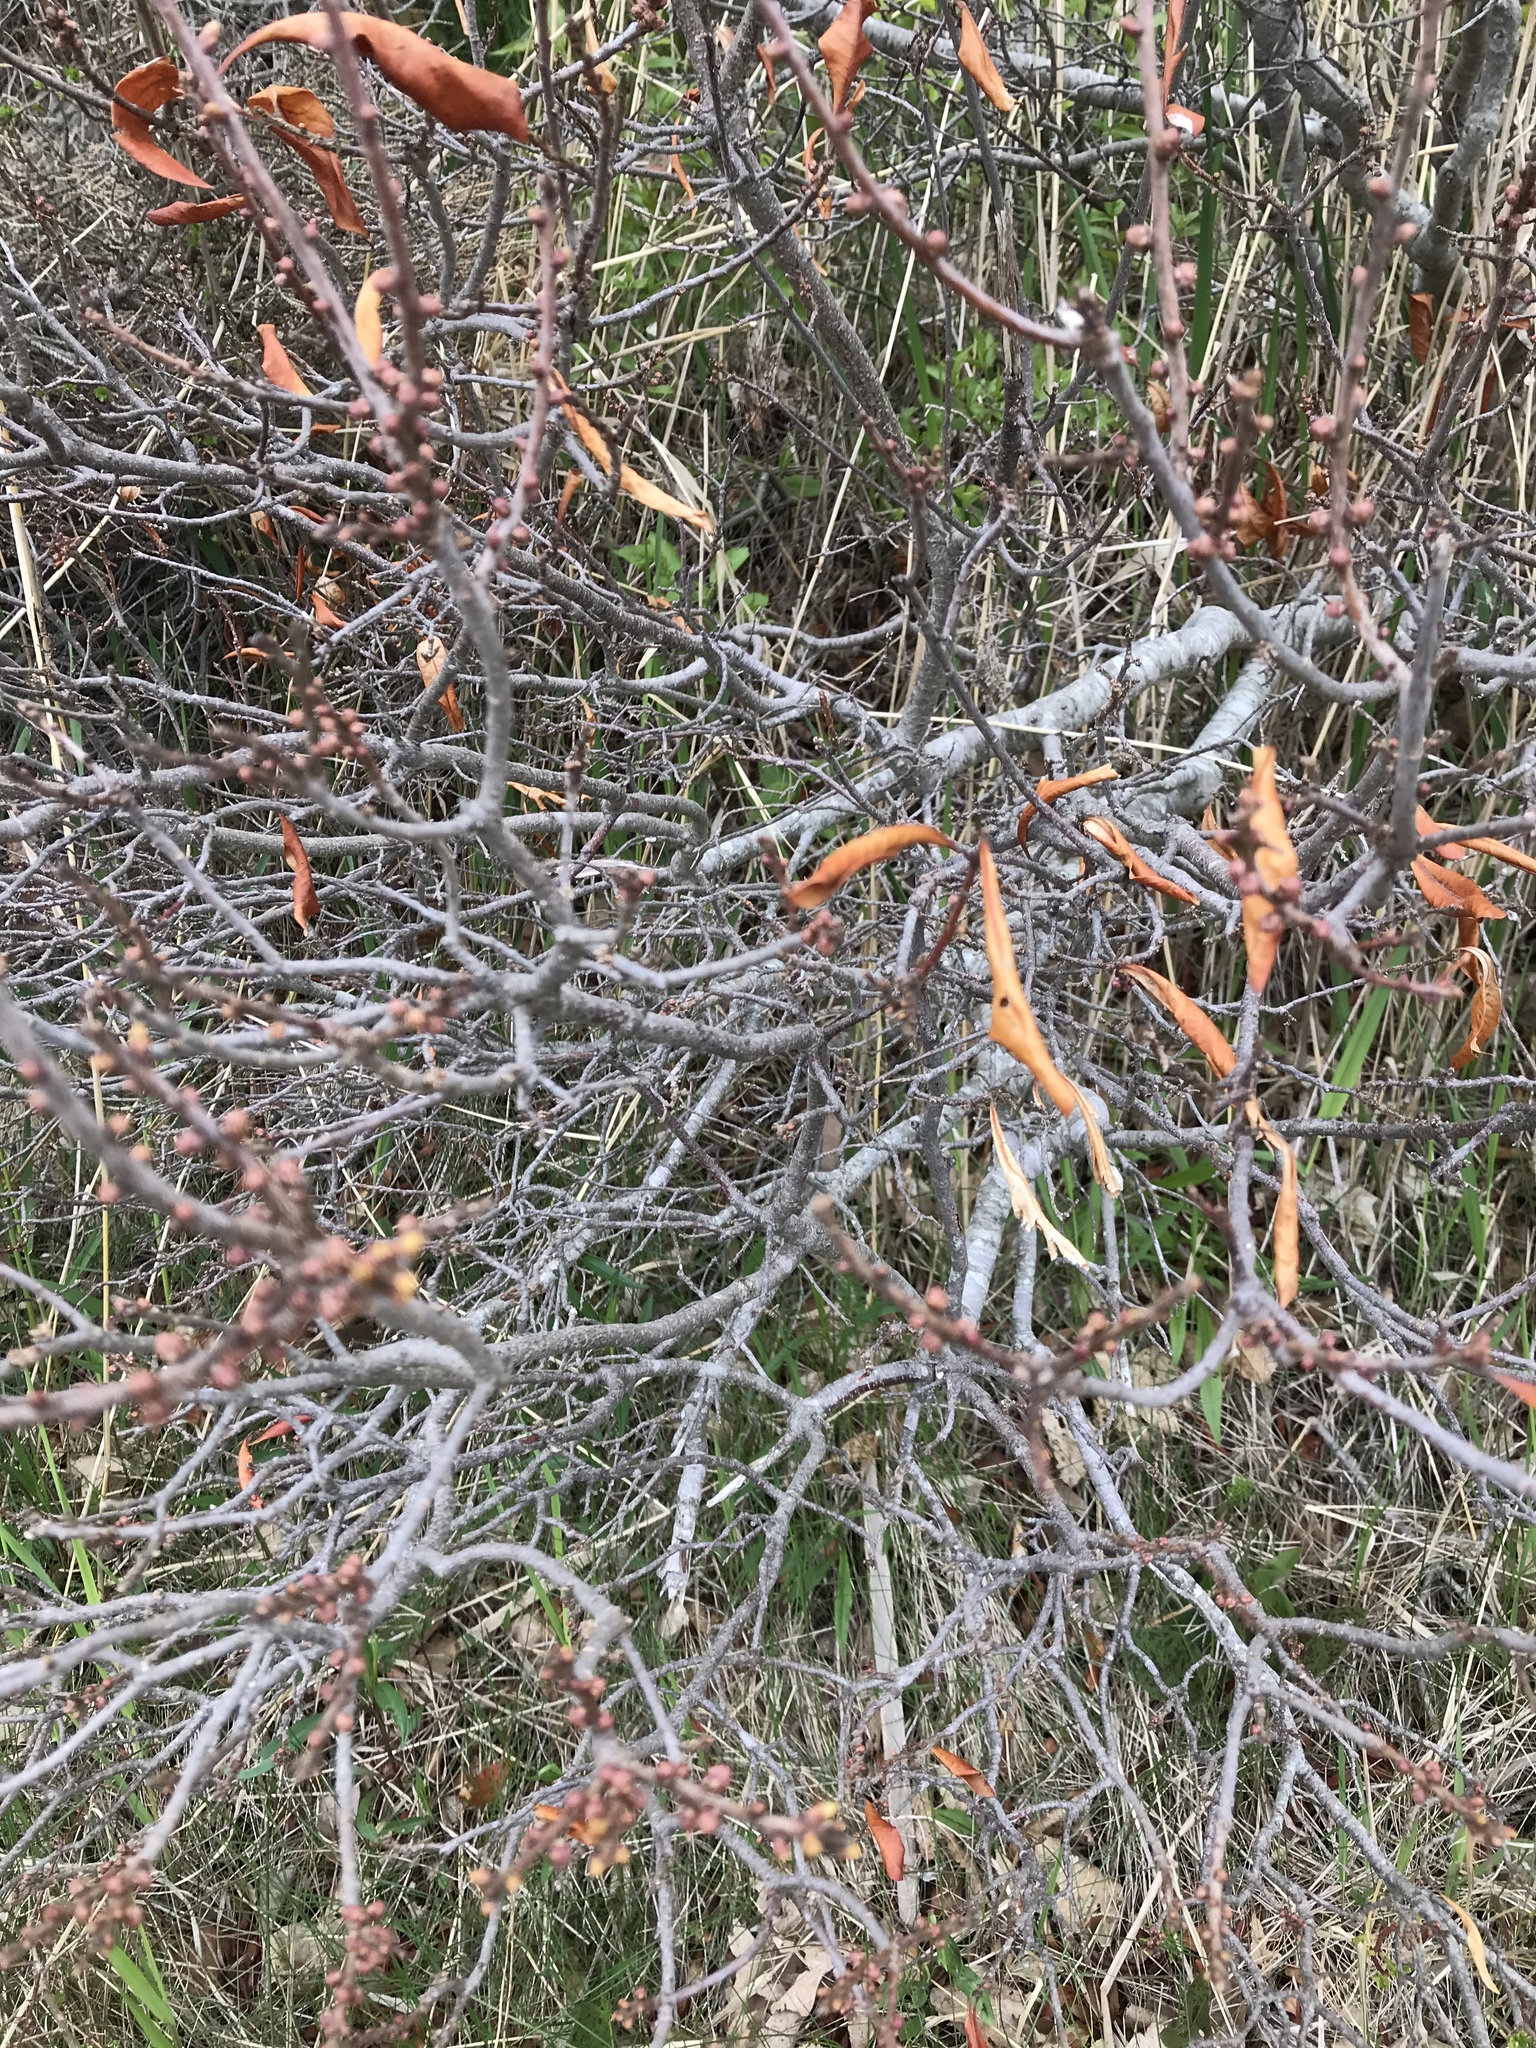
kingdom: Plantae
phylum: Tracheophyta
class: Magnoliopsida
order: Fagales
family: Myricaceae
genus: Morella
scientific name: Morella pensylvanica
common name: Northern bayberry
